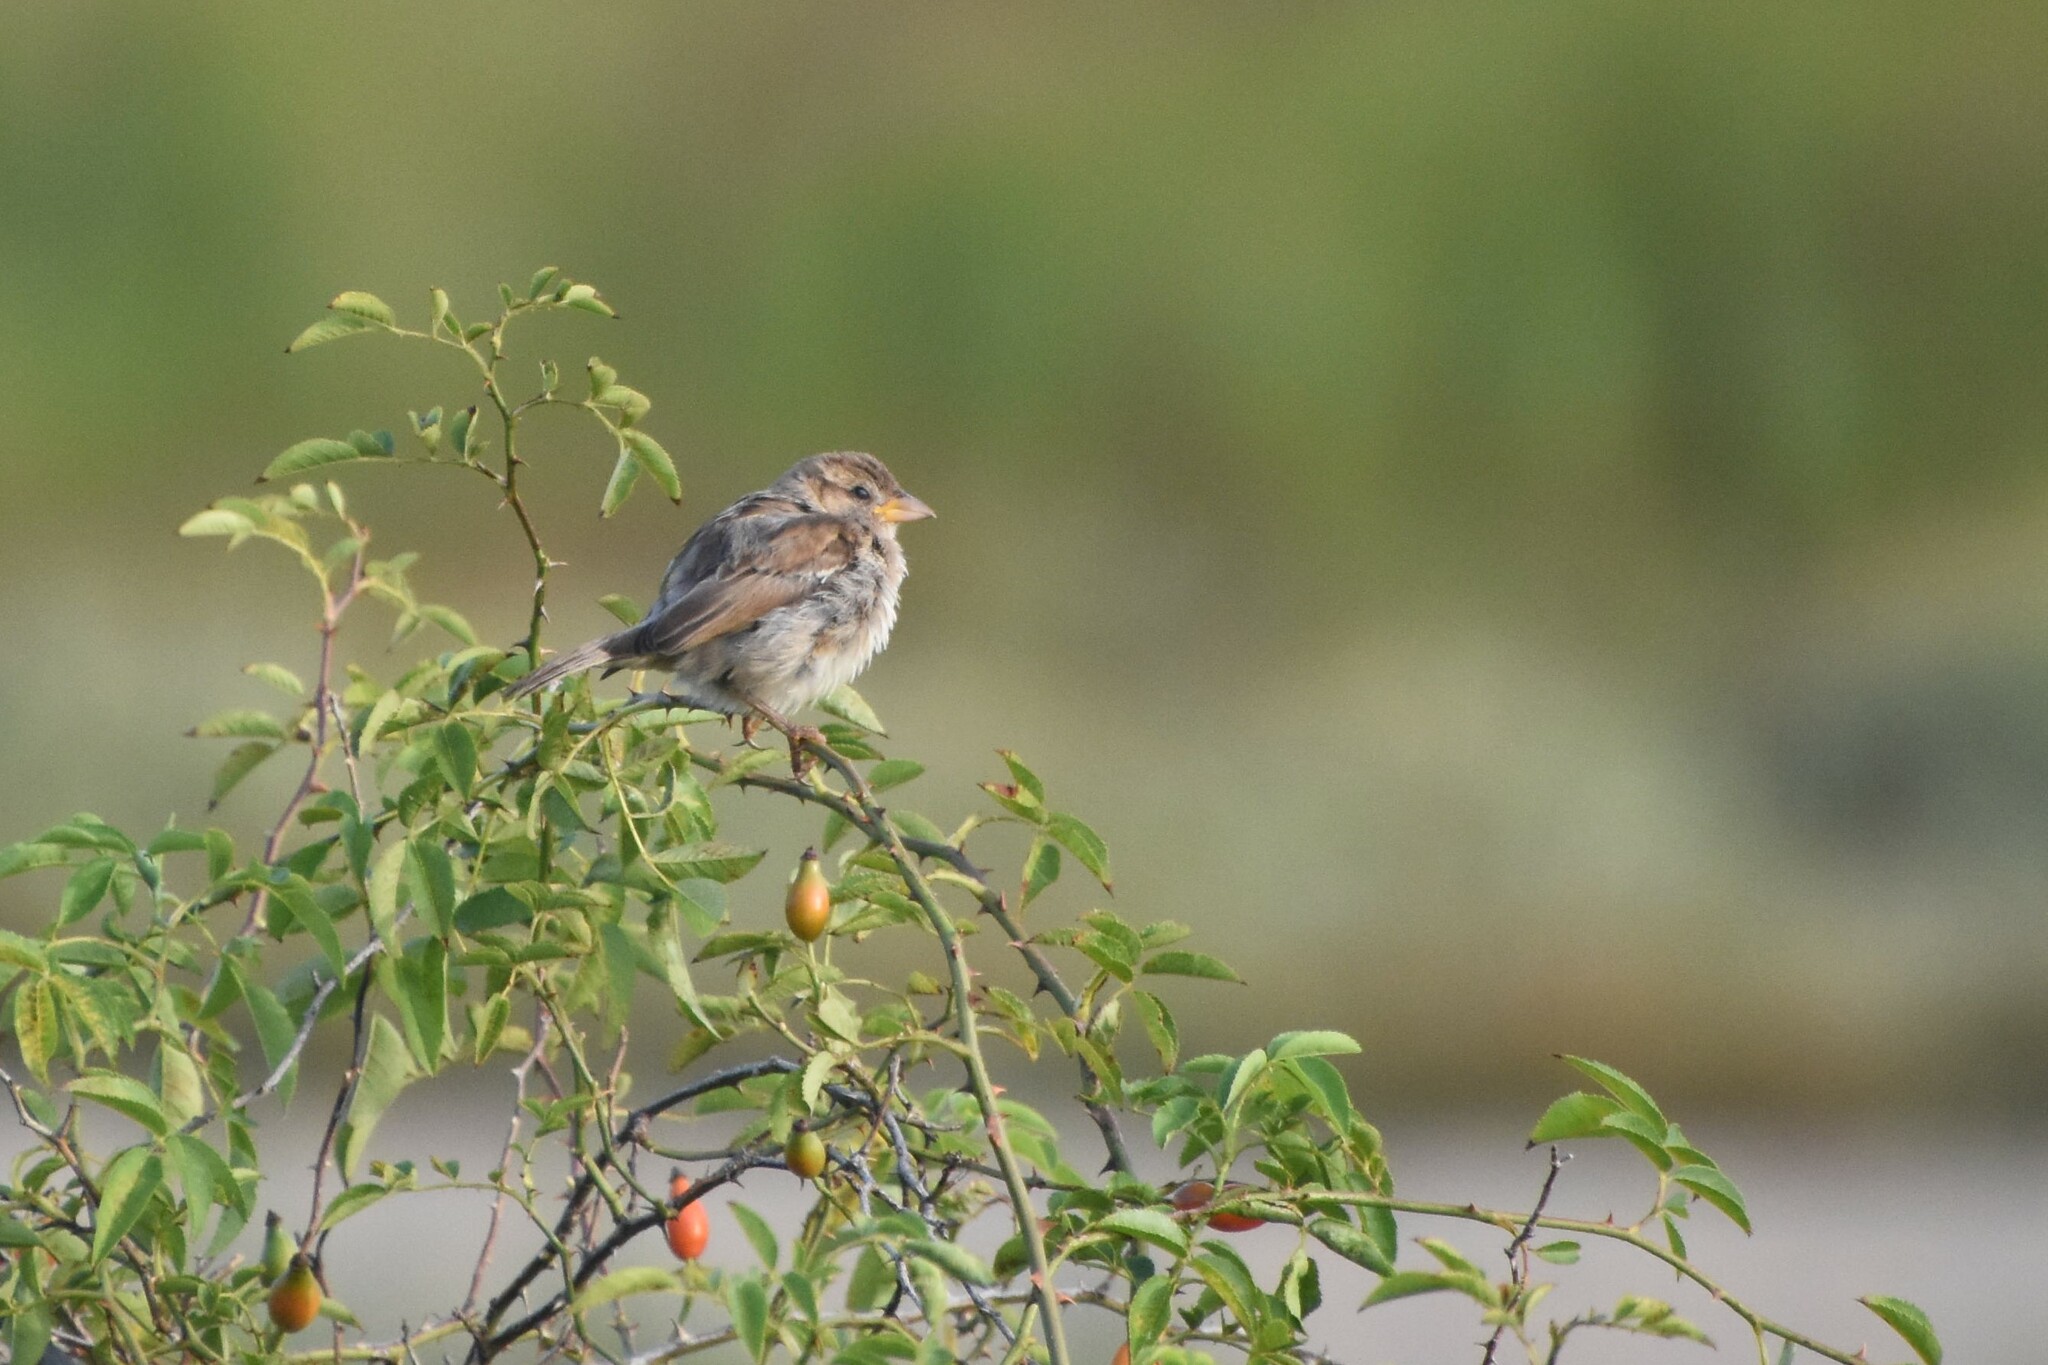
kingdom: Animalia
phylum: Chordata
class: Aves
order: Passeriformes
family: Passeridae
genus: Passer
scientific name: Passer domesticus
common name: House sparrow
